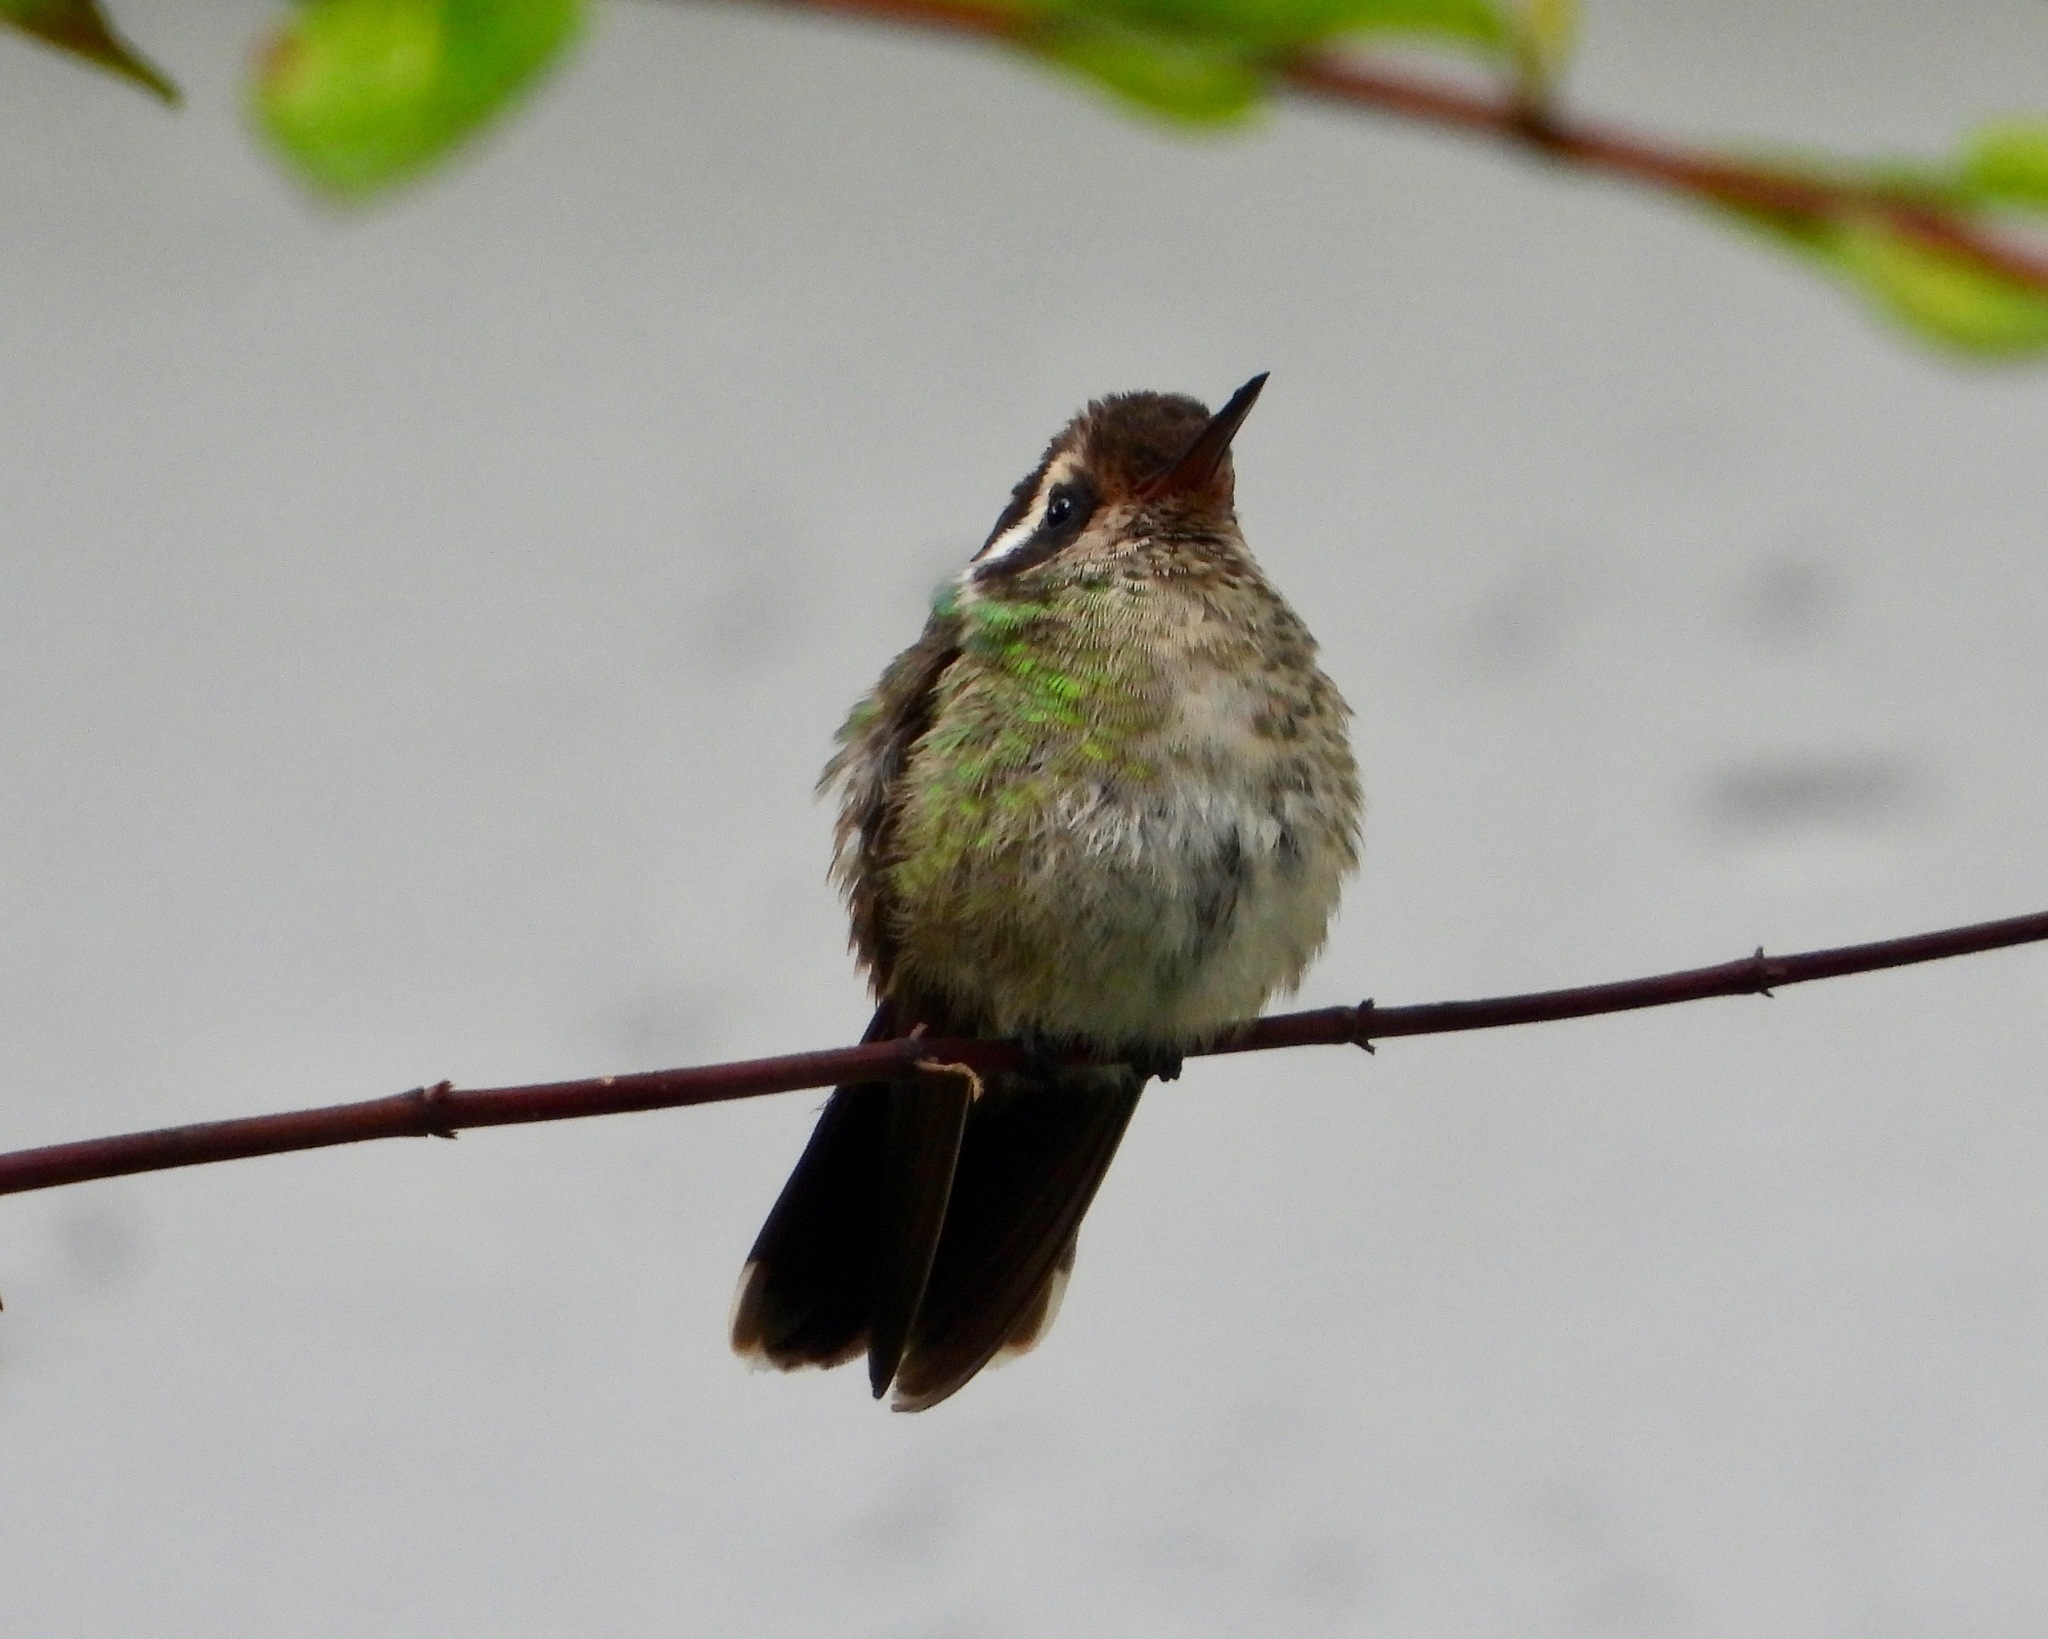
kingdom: Animalia
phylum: Chordata
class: Aves
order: Apodiformes
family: Trochilidae
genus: Basilinna
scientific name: Basilinna leucotis
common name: White-eared hummingbird
